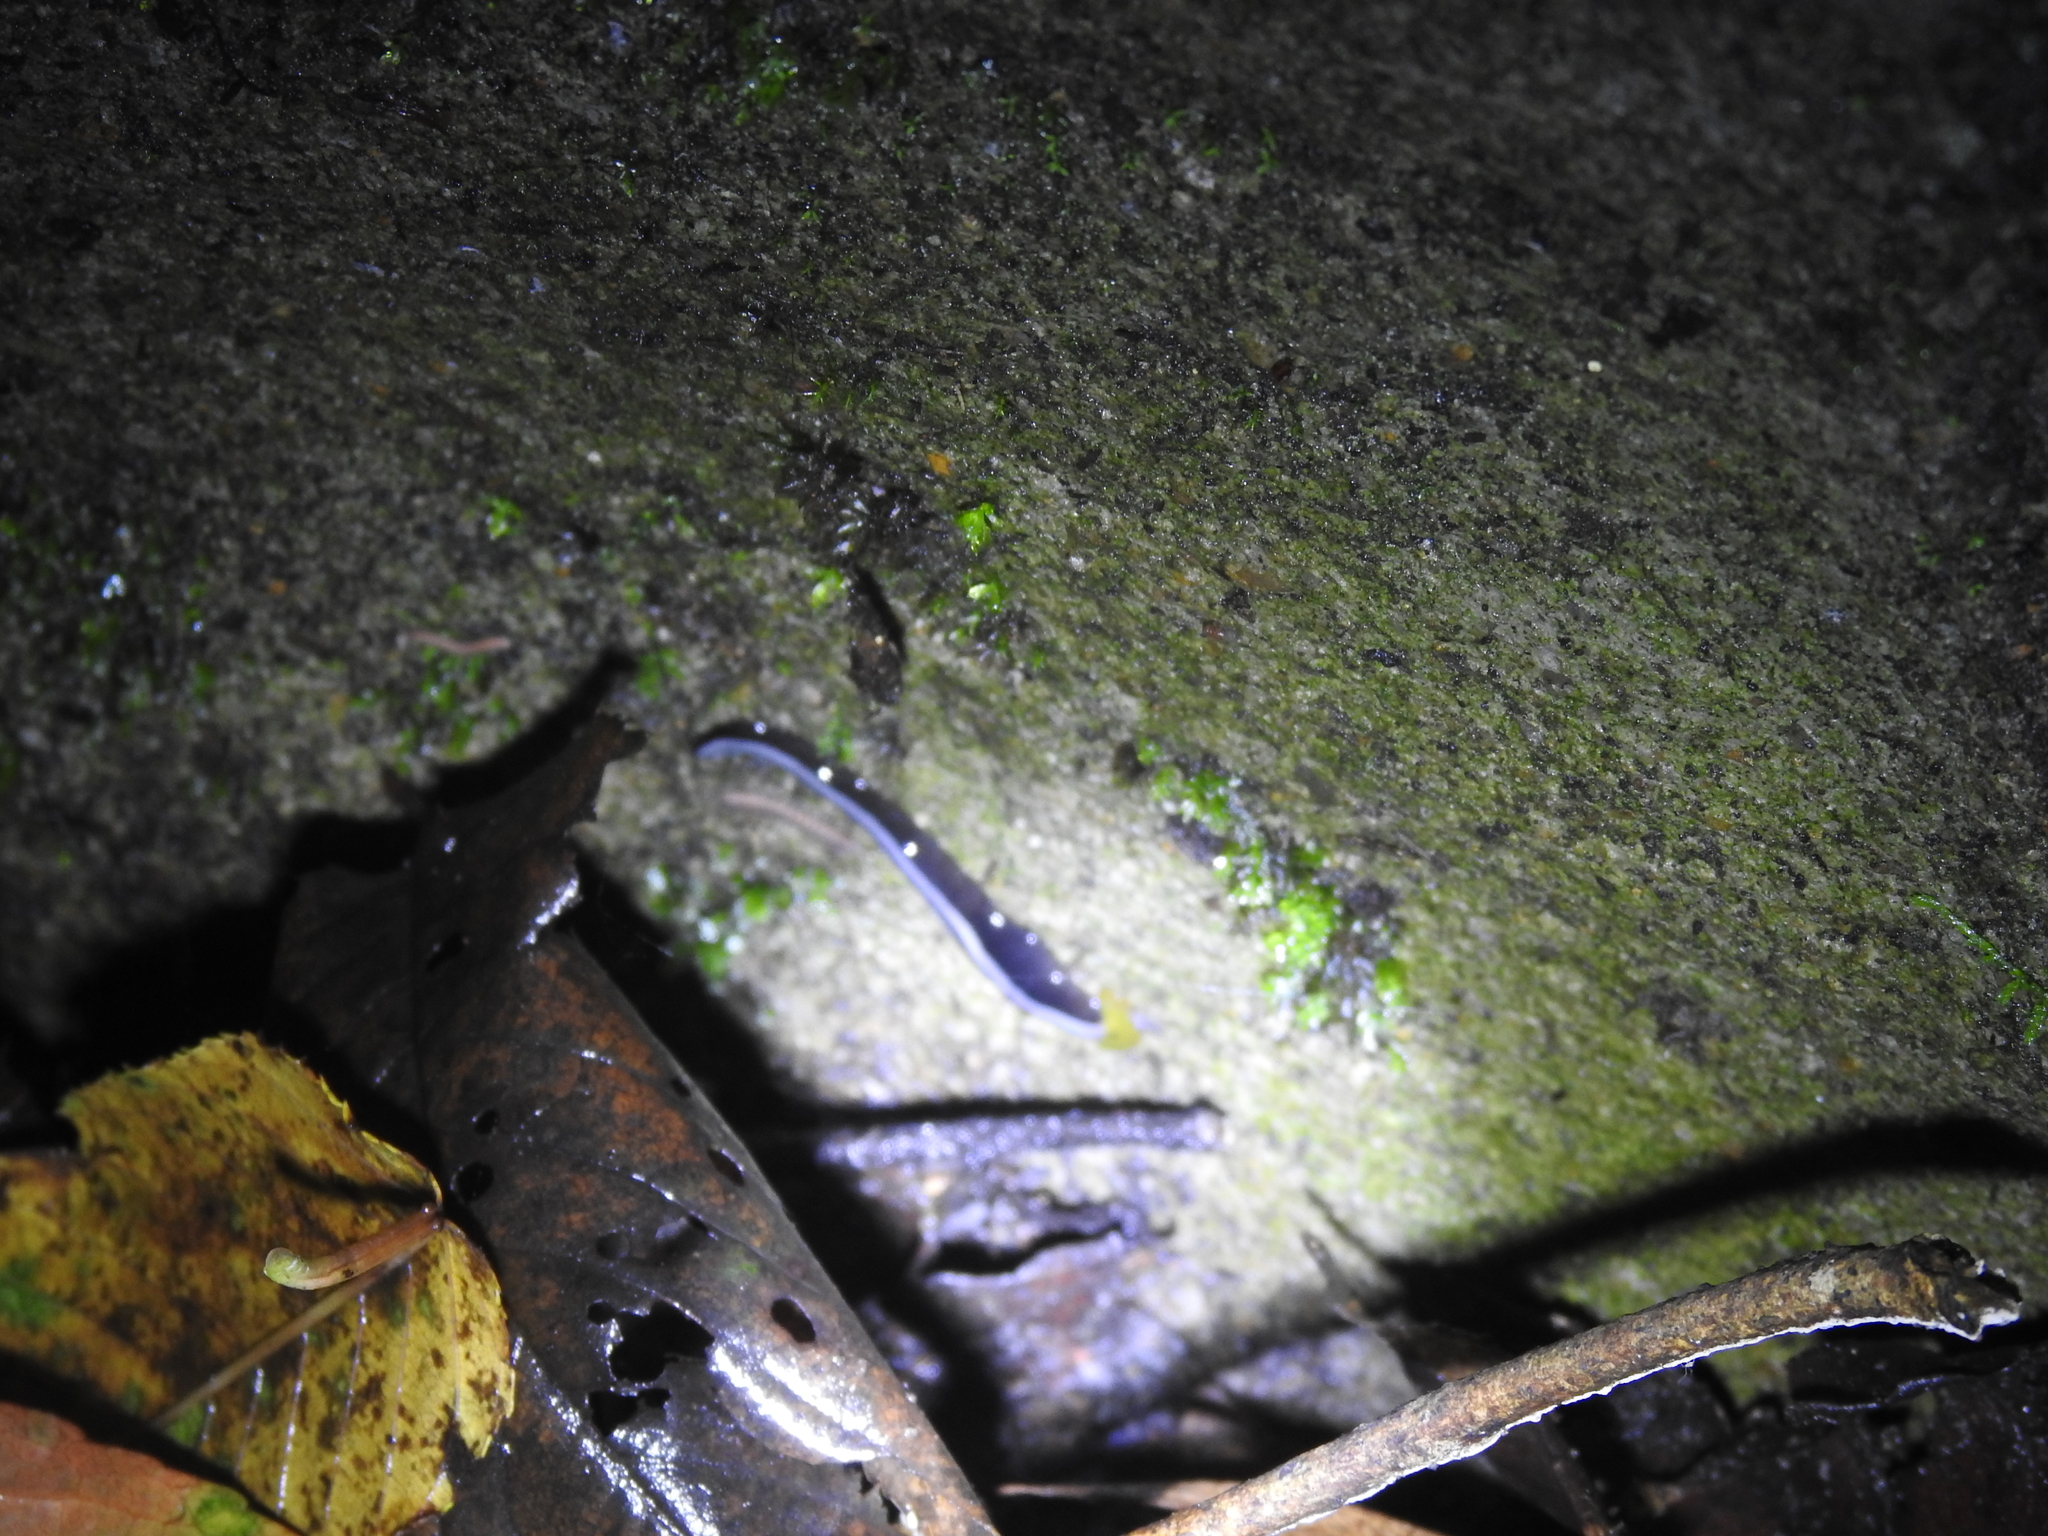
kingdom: Animalia
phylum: Platyhelminthes
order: Tricladida
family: Geoplanidae
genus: Humbertium
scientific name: Humbertium core
